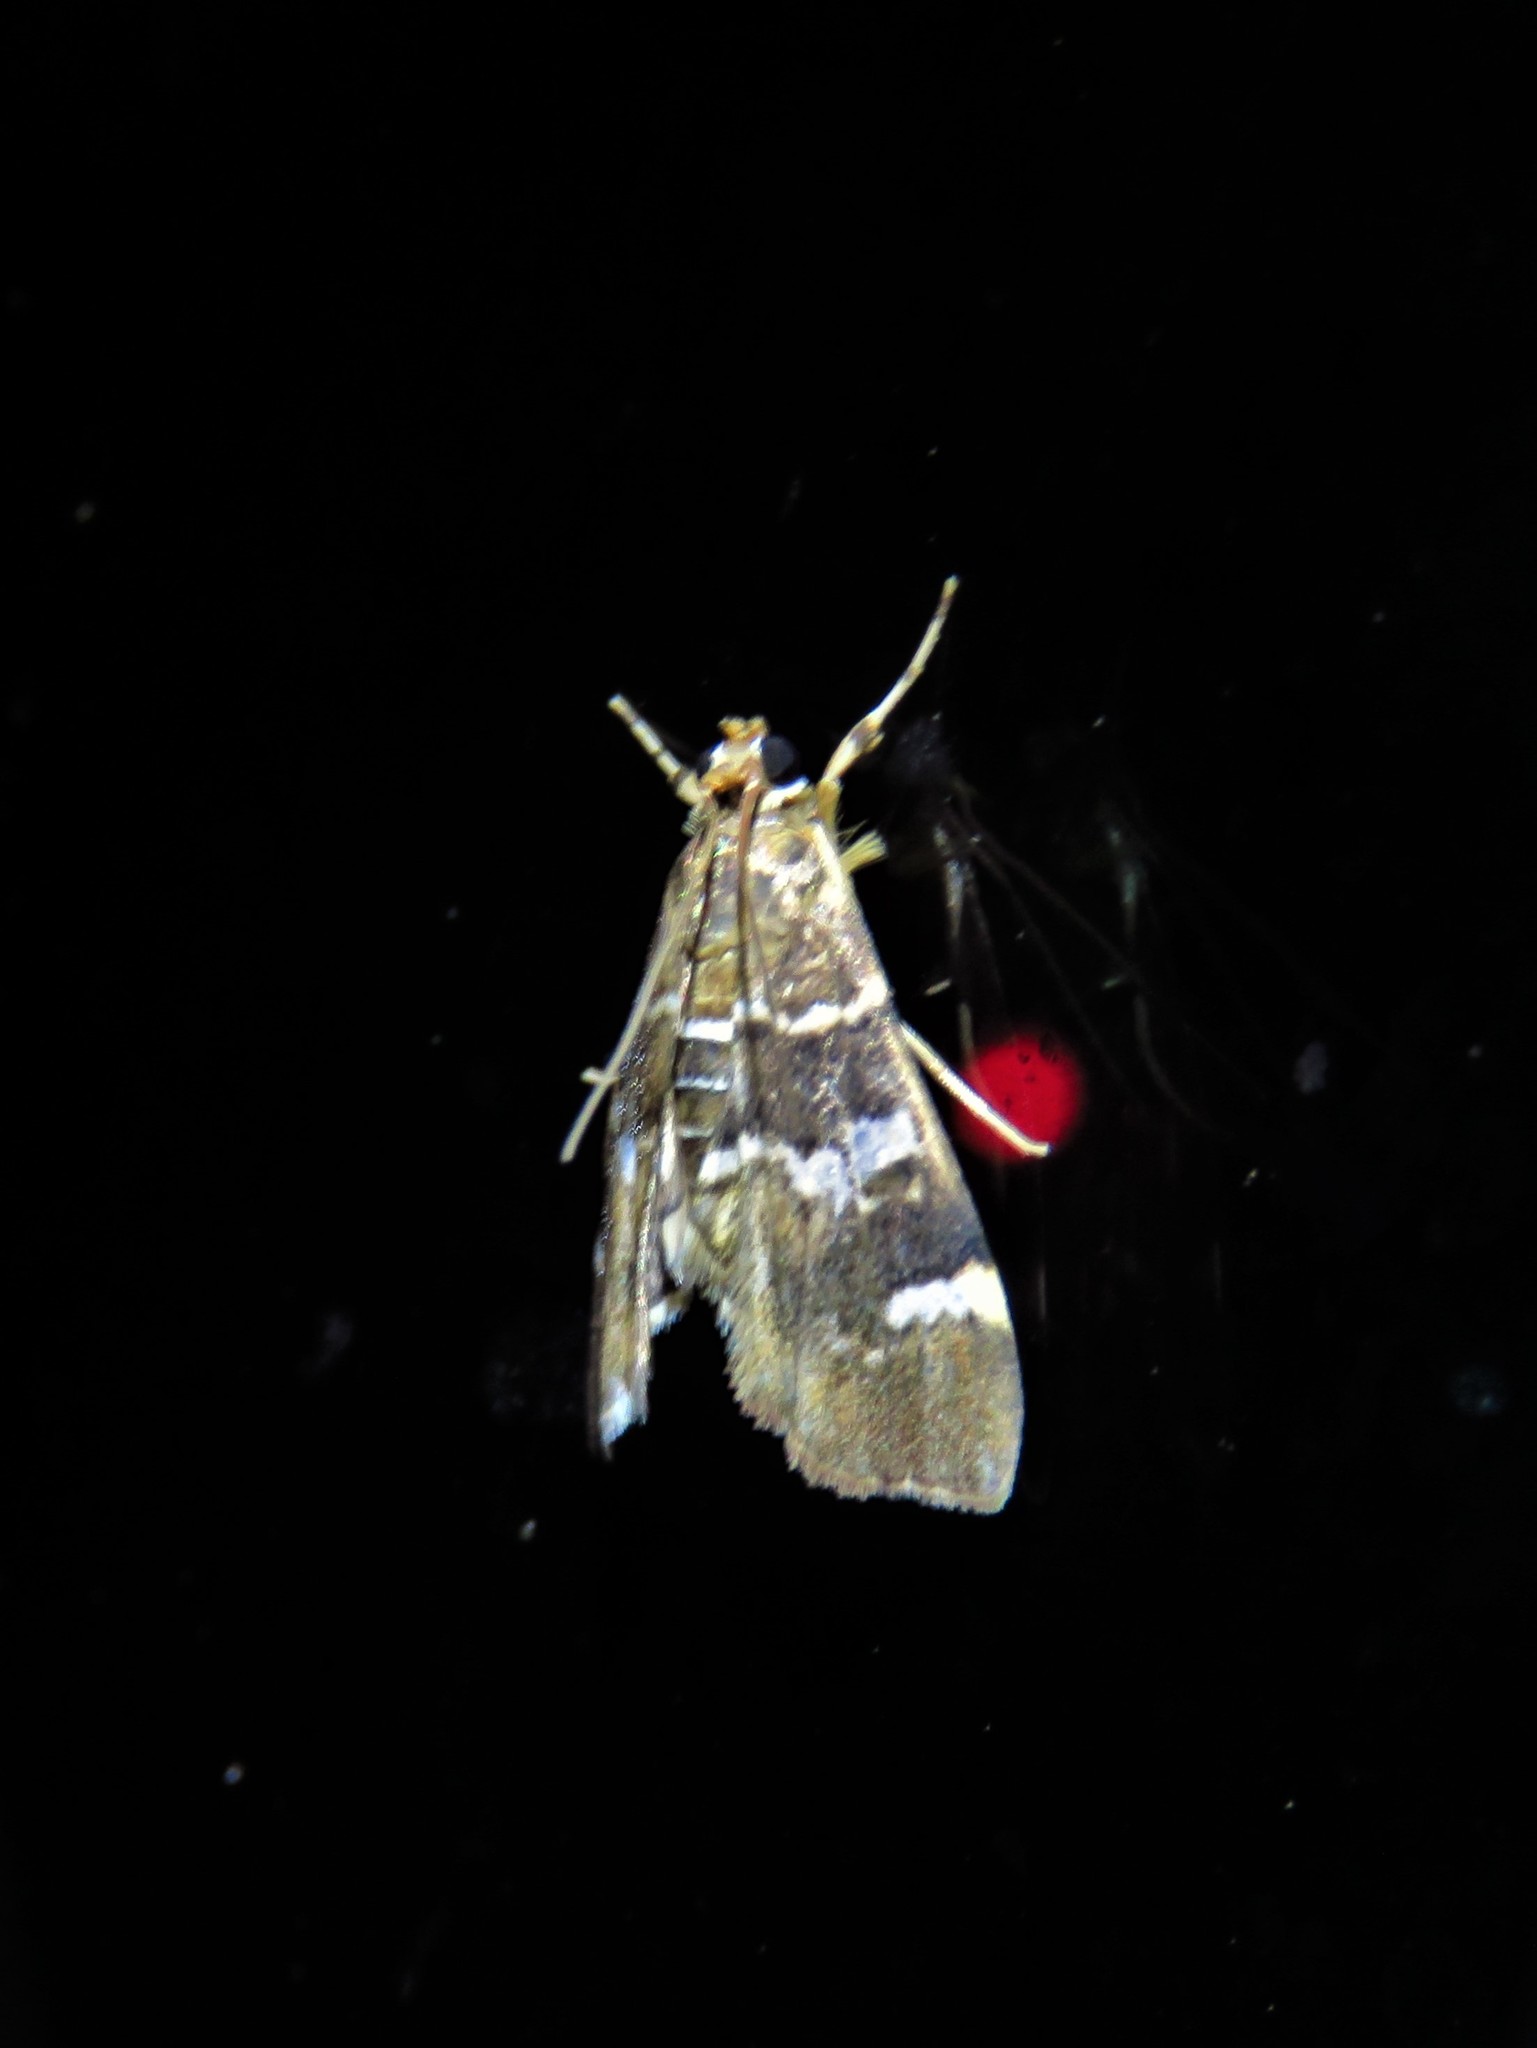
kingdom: Animalia
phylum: Arthropoda
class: Insecta
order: Lepidoptera
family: Crambidae
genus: Hymenia
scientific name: Hymenia perspectalis
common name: Spotted beet webworm
